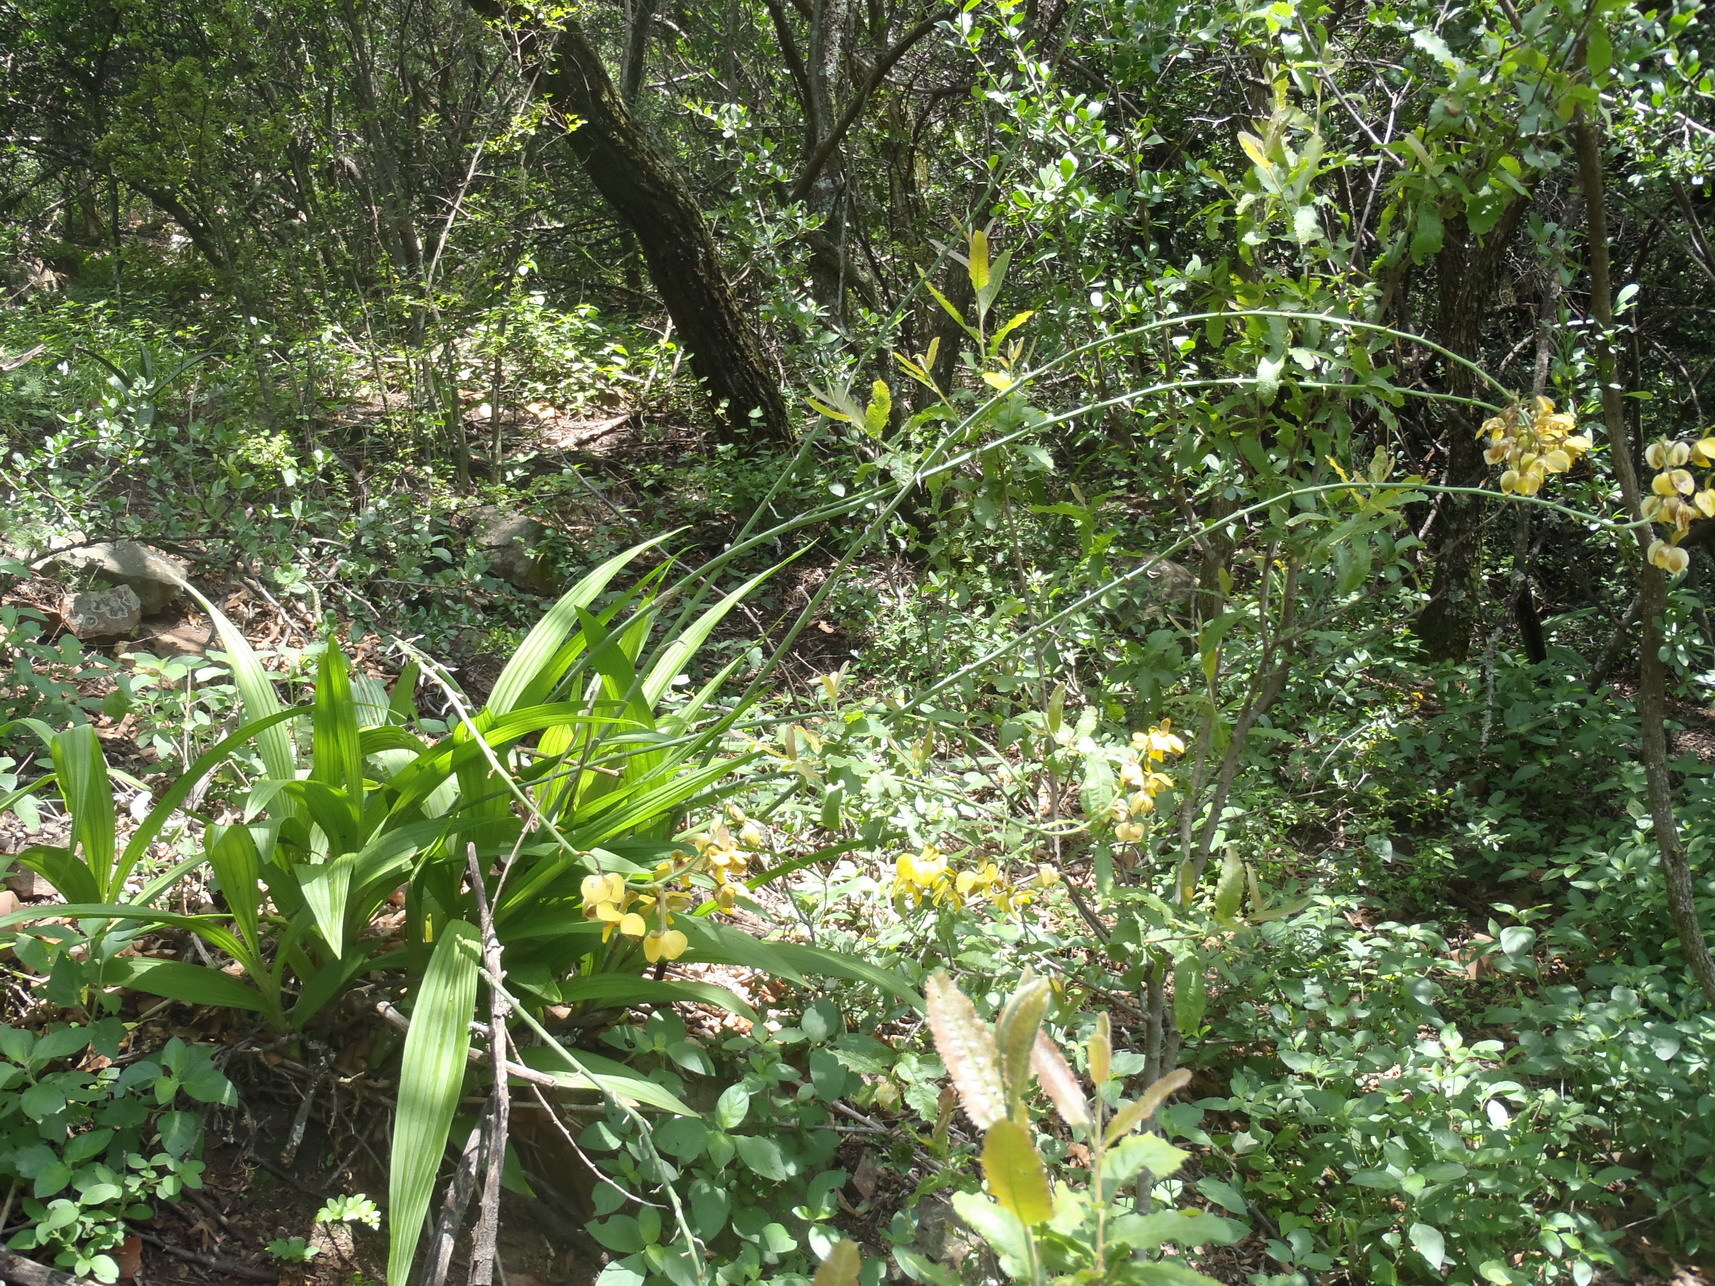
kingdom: Plantae
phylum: Tracheophyta
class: Liliopsida
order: Asparagales
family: Orchidaceae
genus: Eulophia
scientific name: Eulophia streptopetala
